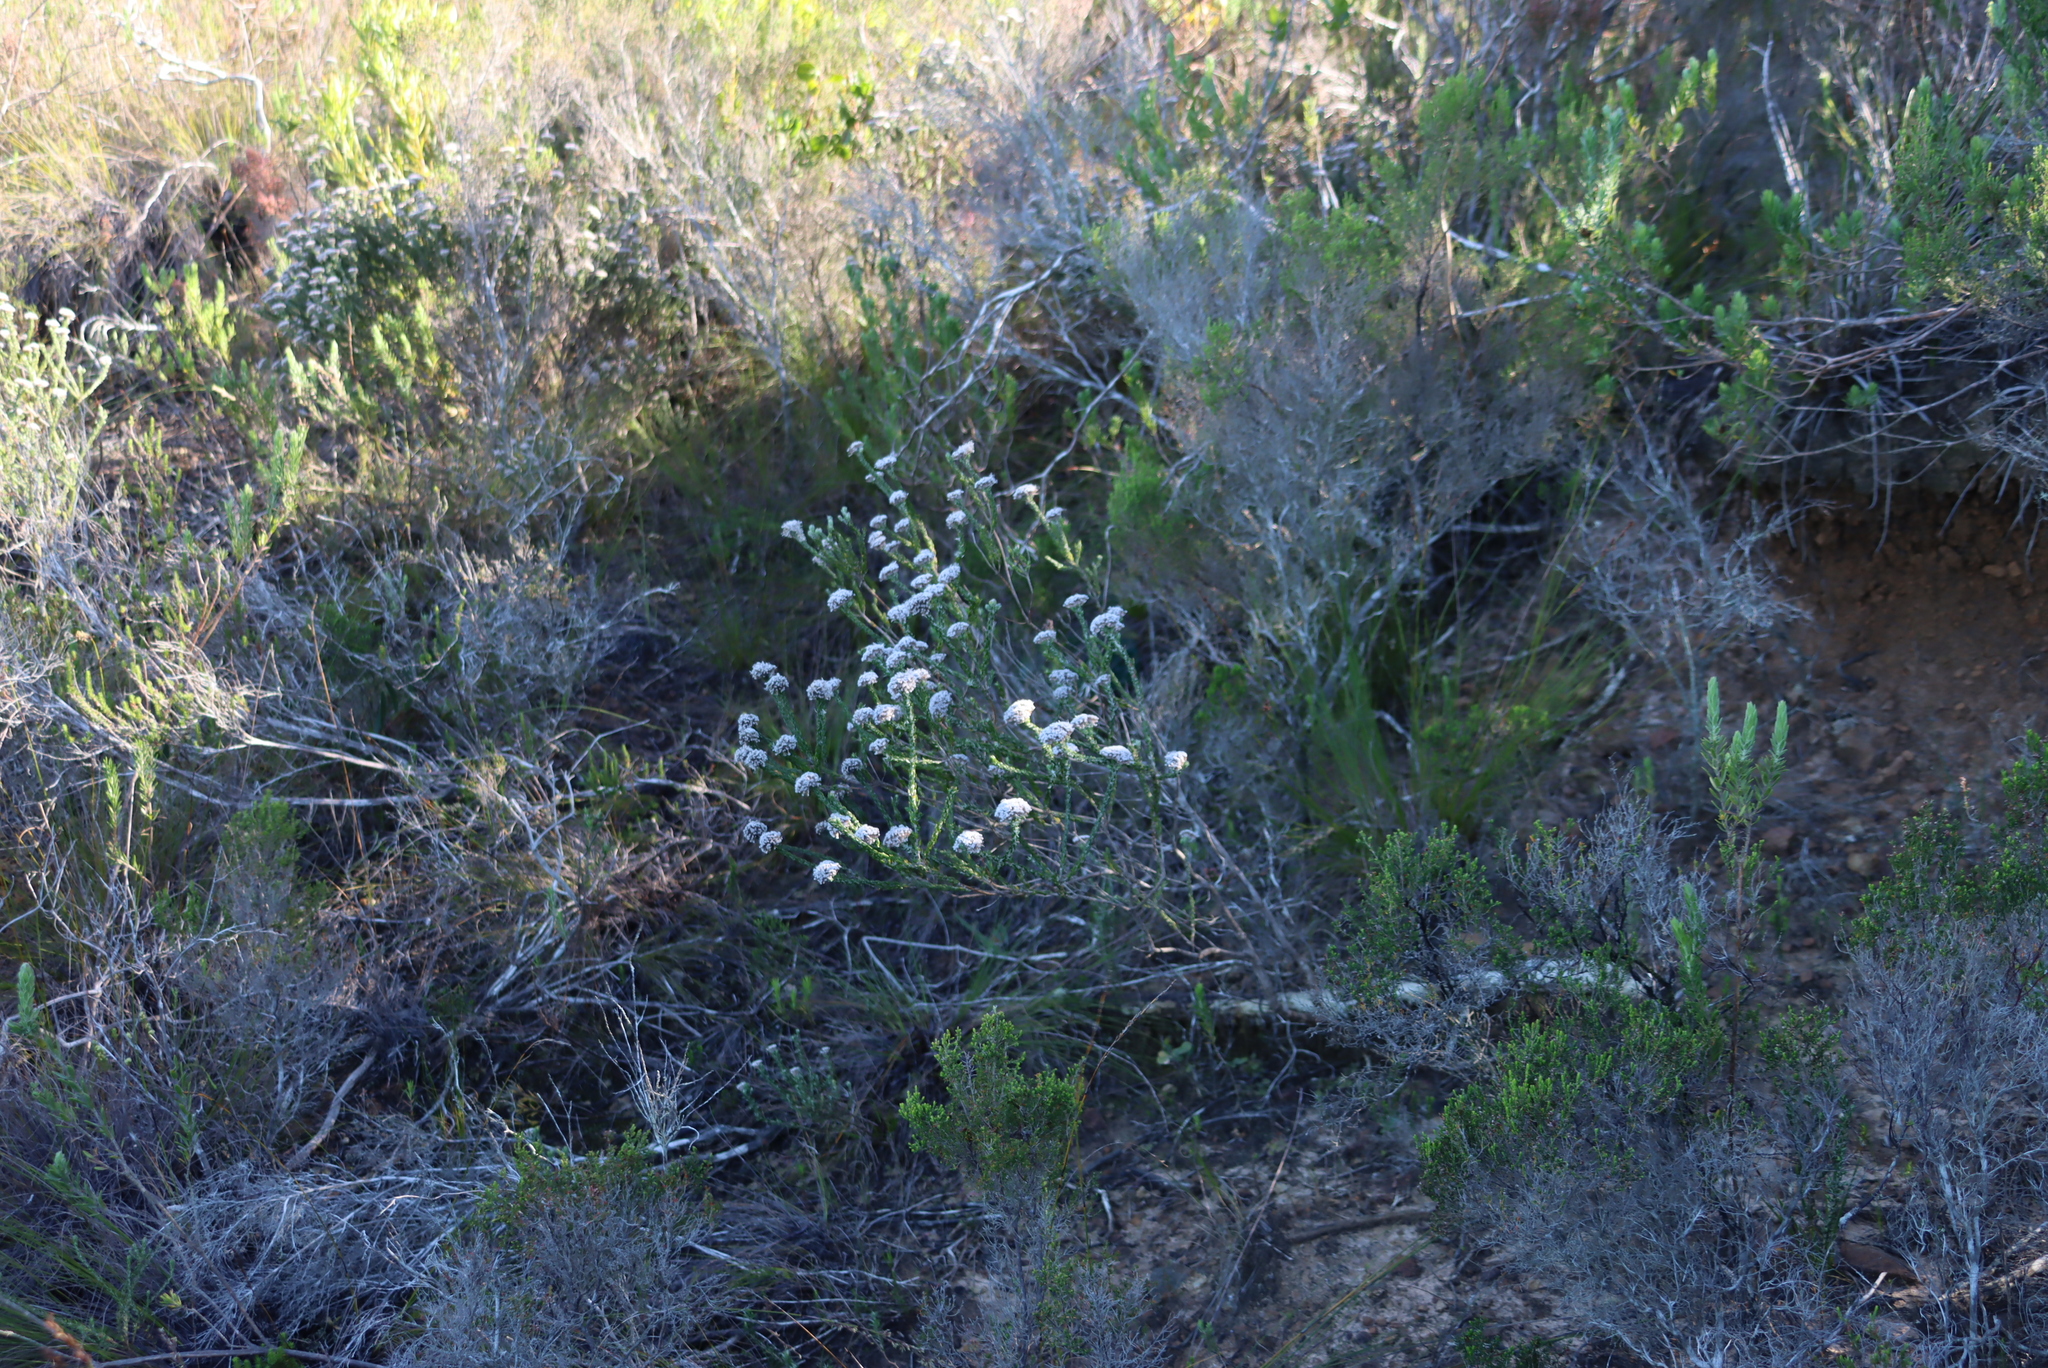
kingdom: Plantae
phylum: Tracheophyta
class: Magnoliopsida
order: Asterales
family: Asteraceae
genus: Metalasia
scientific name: Metalasia pungens
